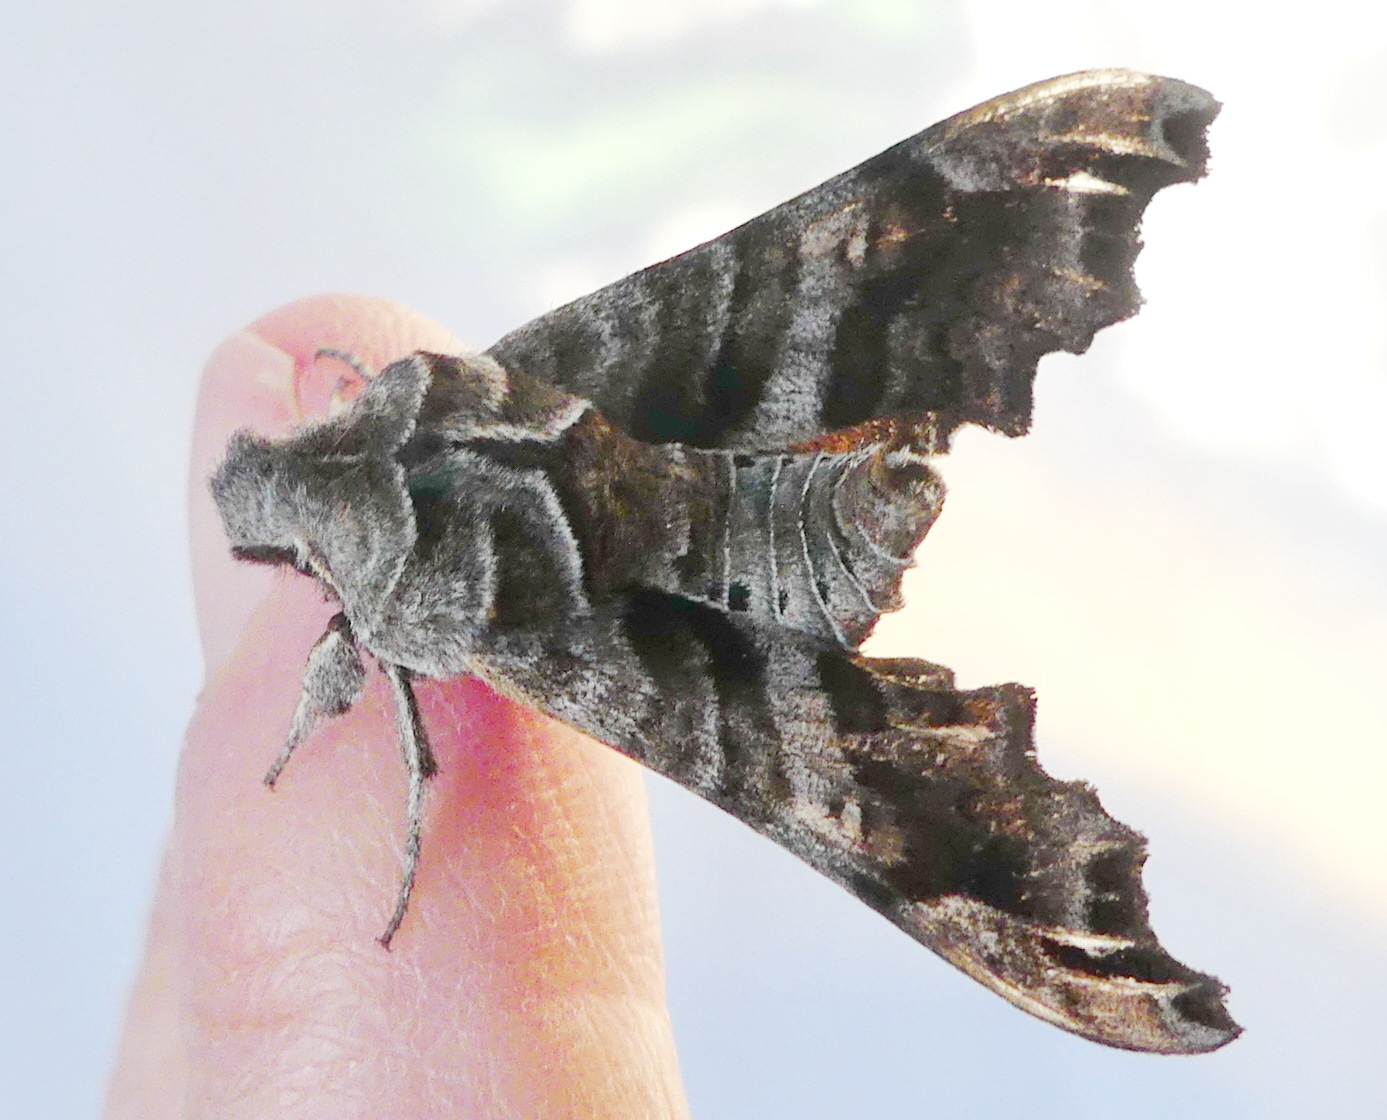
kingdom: Animalia
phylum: Arthropoda
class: Insecta
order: Lepidoptera
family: Sphingidae
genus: Deidamia
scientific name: Deidamia inscriptum
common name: Lettered sphinx
